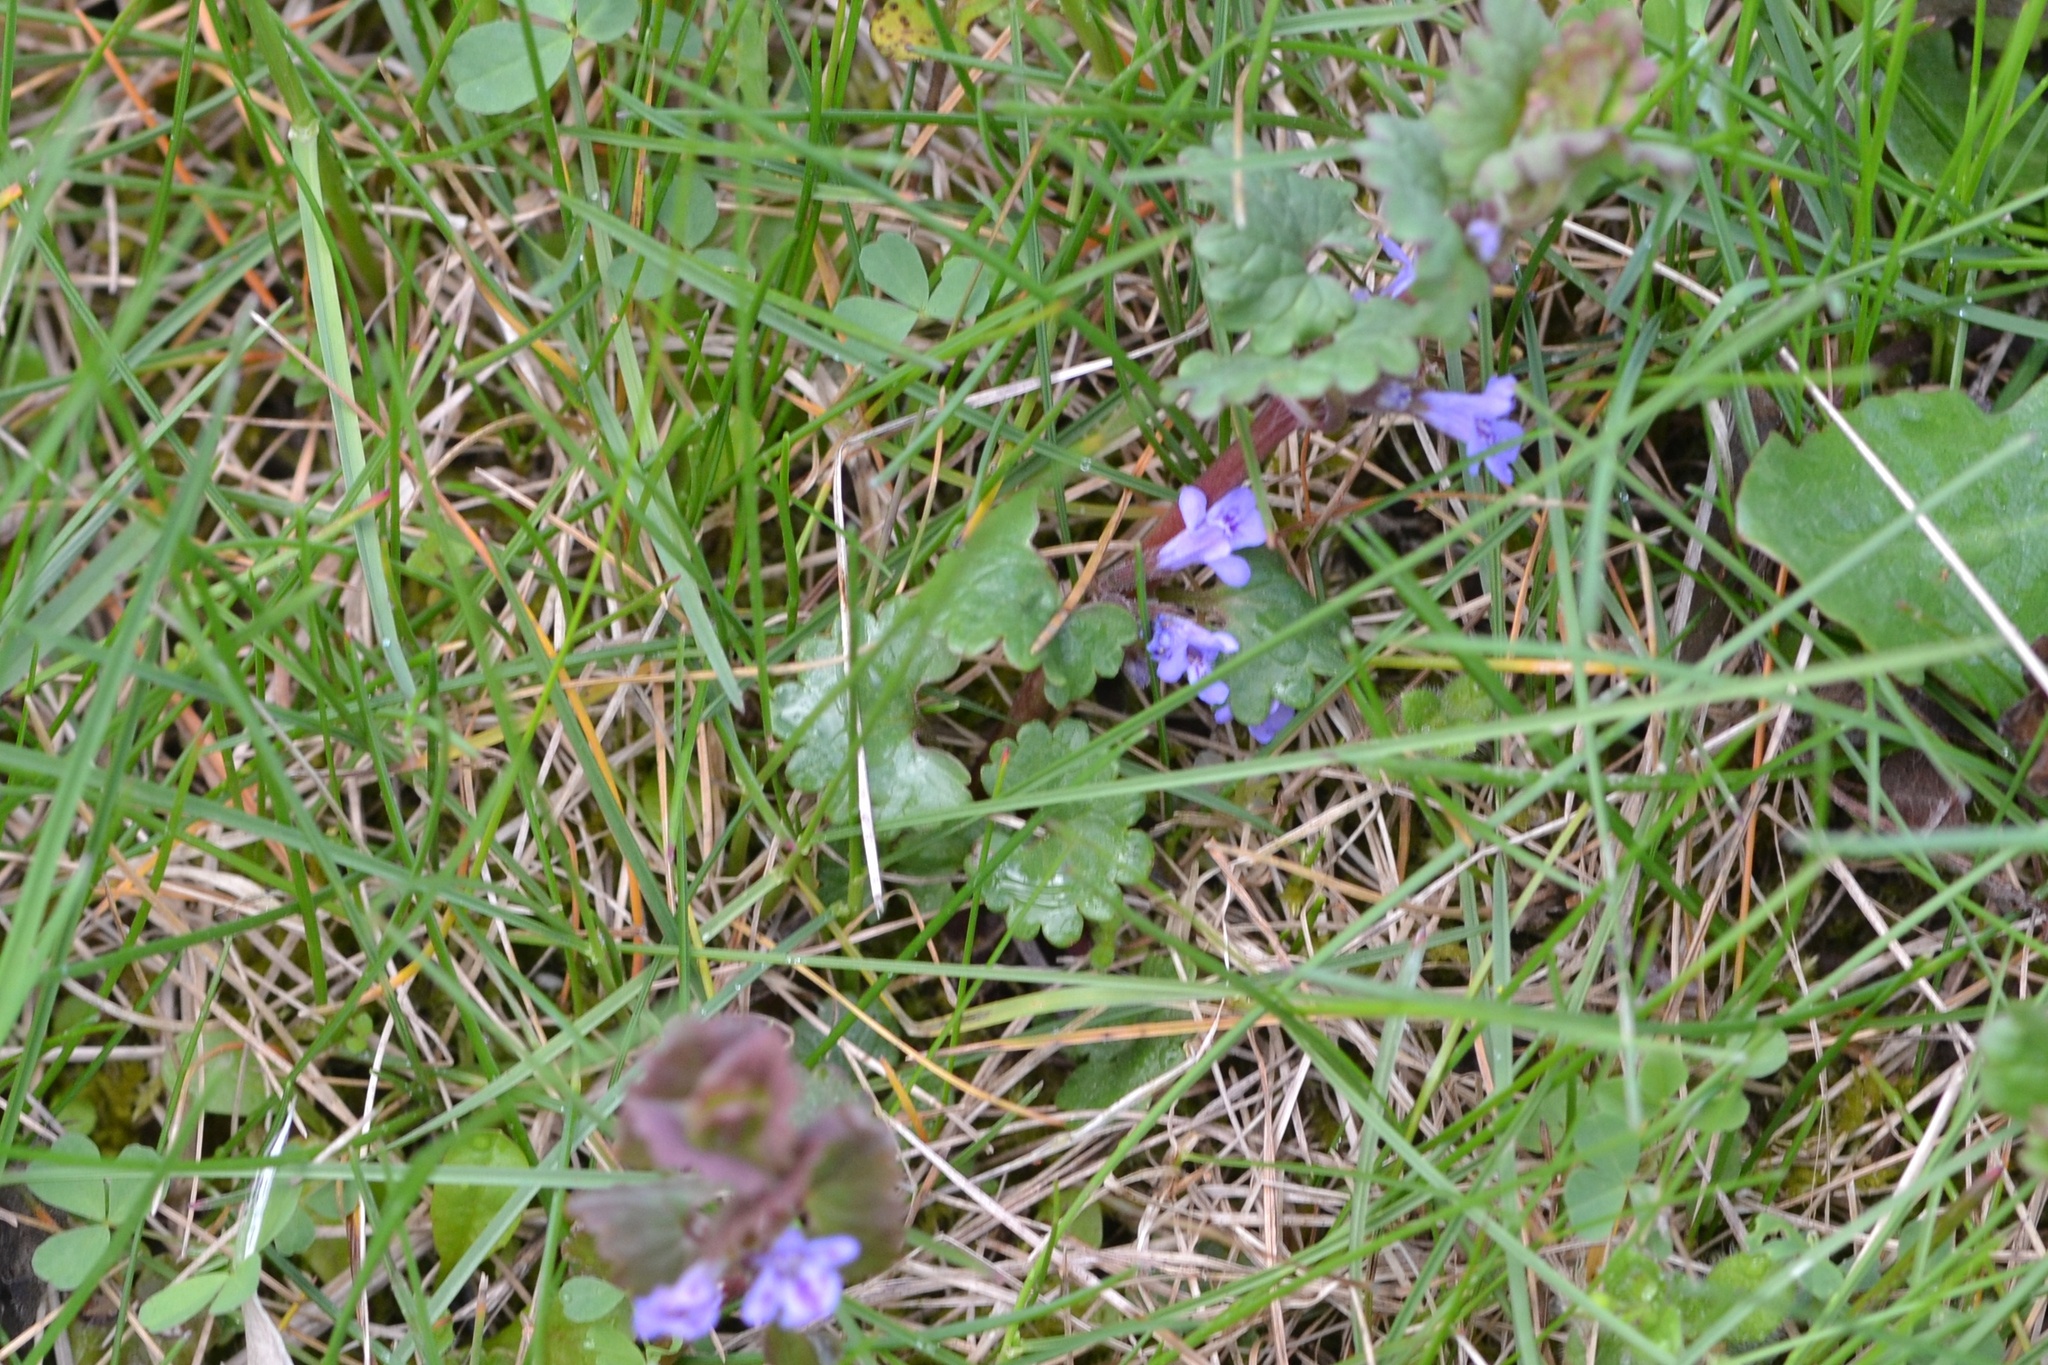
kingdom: Plantae
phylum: Tracheophyta
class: Magnoliopsida
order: Lamiales
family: Lamiaceae
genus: Glechoma
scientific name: Glechoma hederacea
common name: Ground ivy
